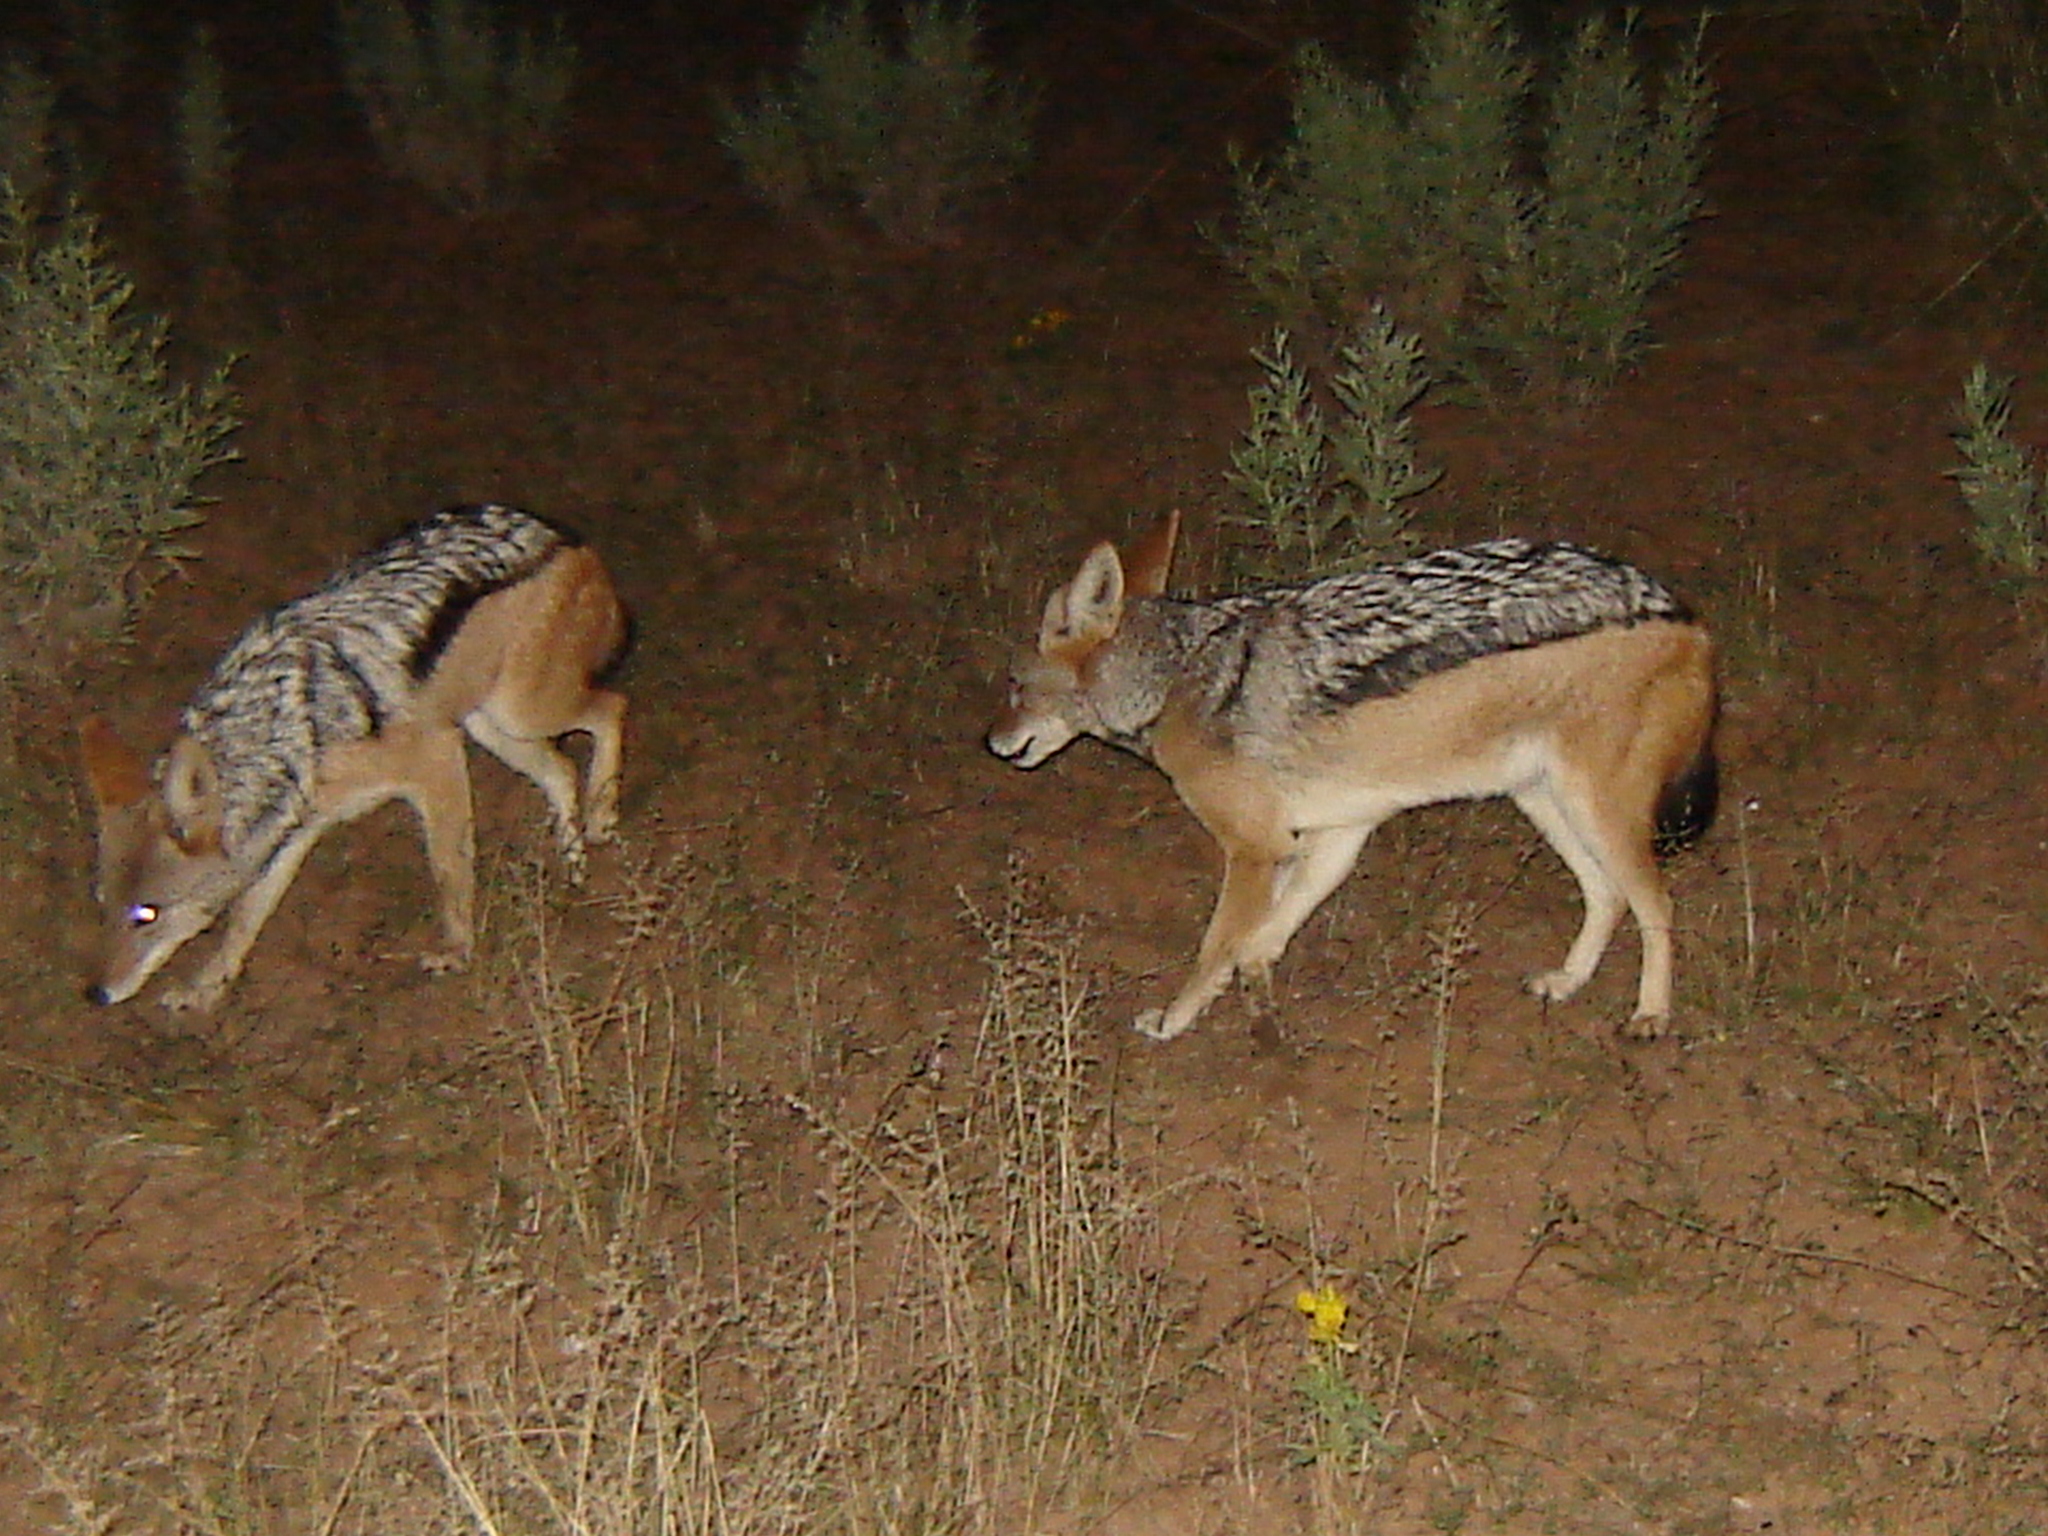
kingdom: Animalia
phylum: Chordata
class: Mammalia
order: Carnivora
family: Canidae
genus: Lupulella
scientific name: Lupulella
